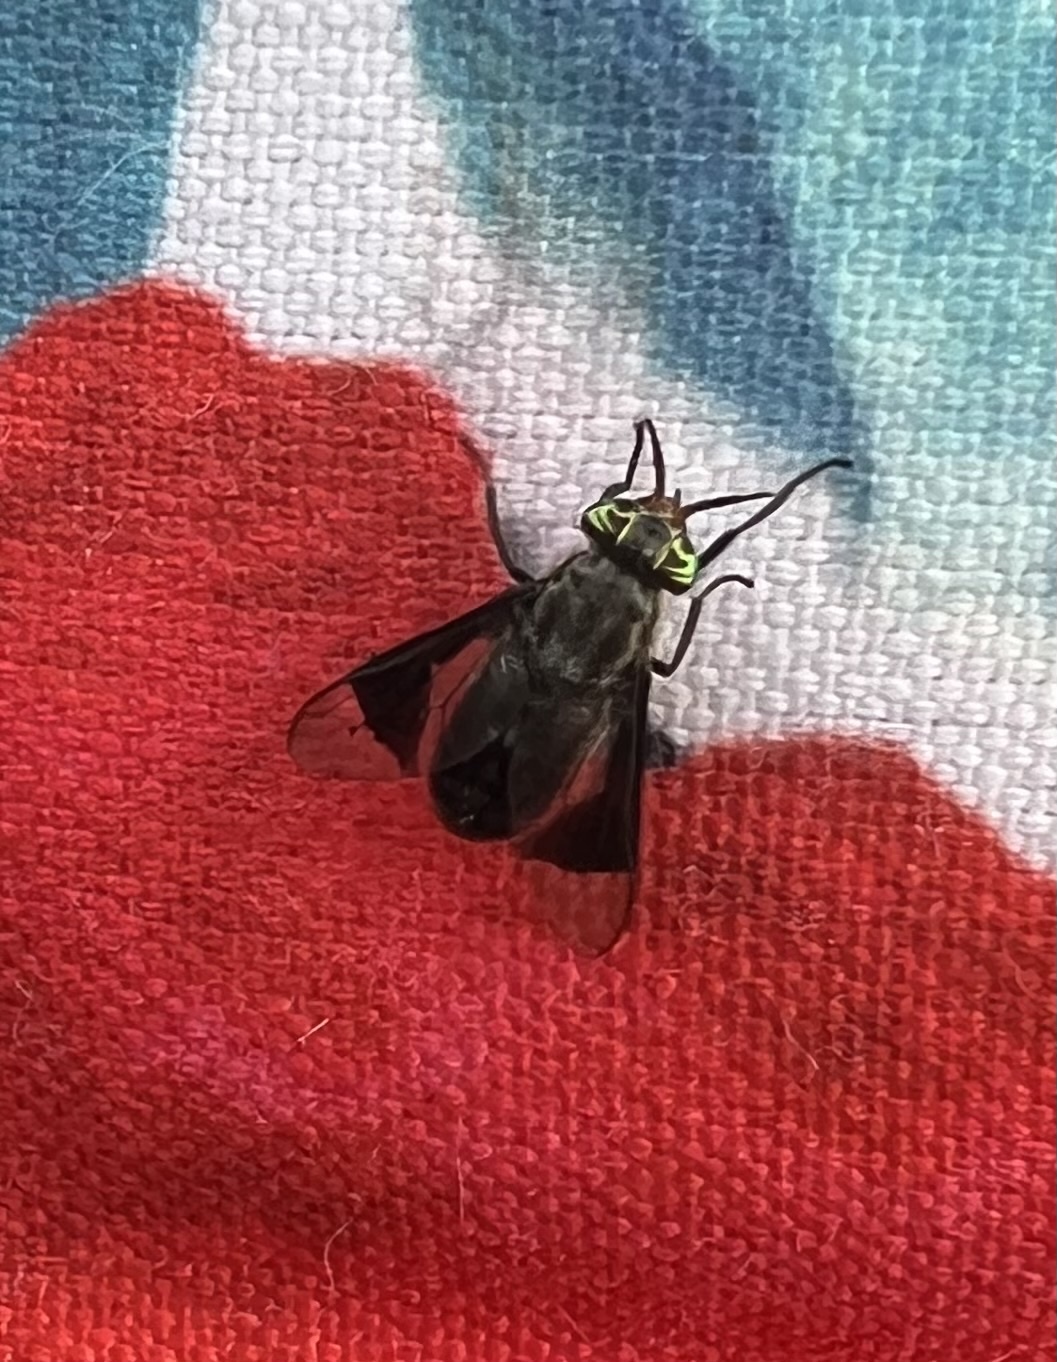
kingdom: Animalia
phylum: Arthropoda
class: Insecta
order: Diptera
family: Tabanidae
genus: Chrysops
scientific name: Chrysops niger
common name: Black deer fly
